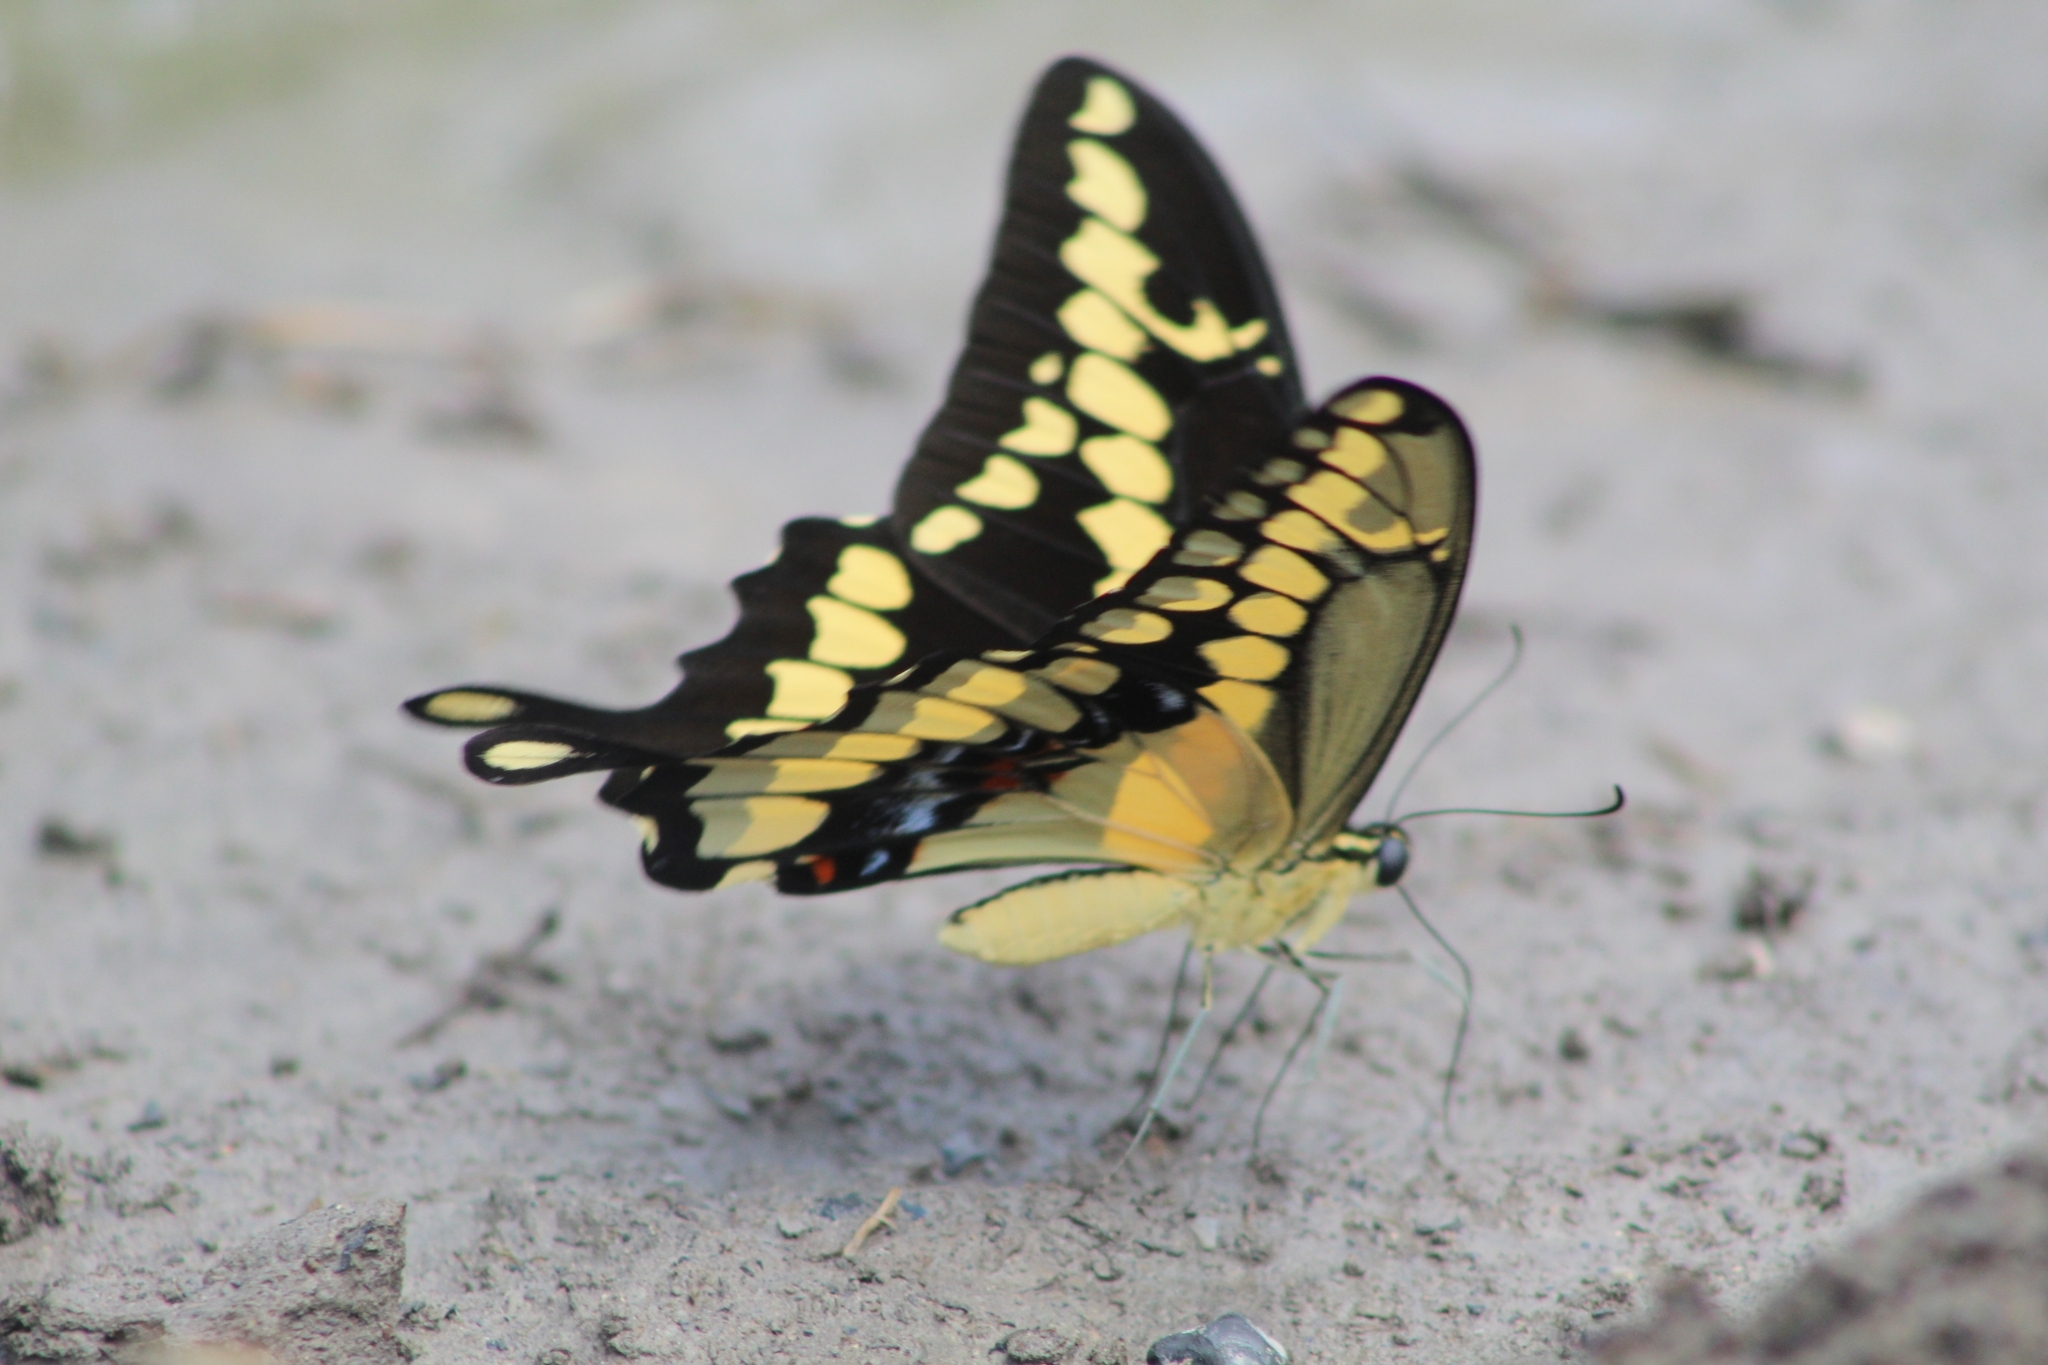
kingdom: Animalia
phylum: Arthropoda
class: Insecta
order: Lepidoptera
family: Papilionidae
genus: Papilio
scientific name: Papilio rumiko
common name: Western giant swallowtail
